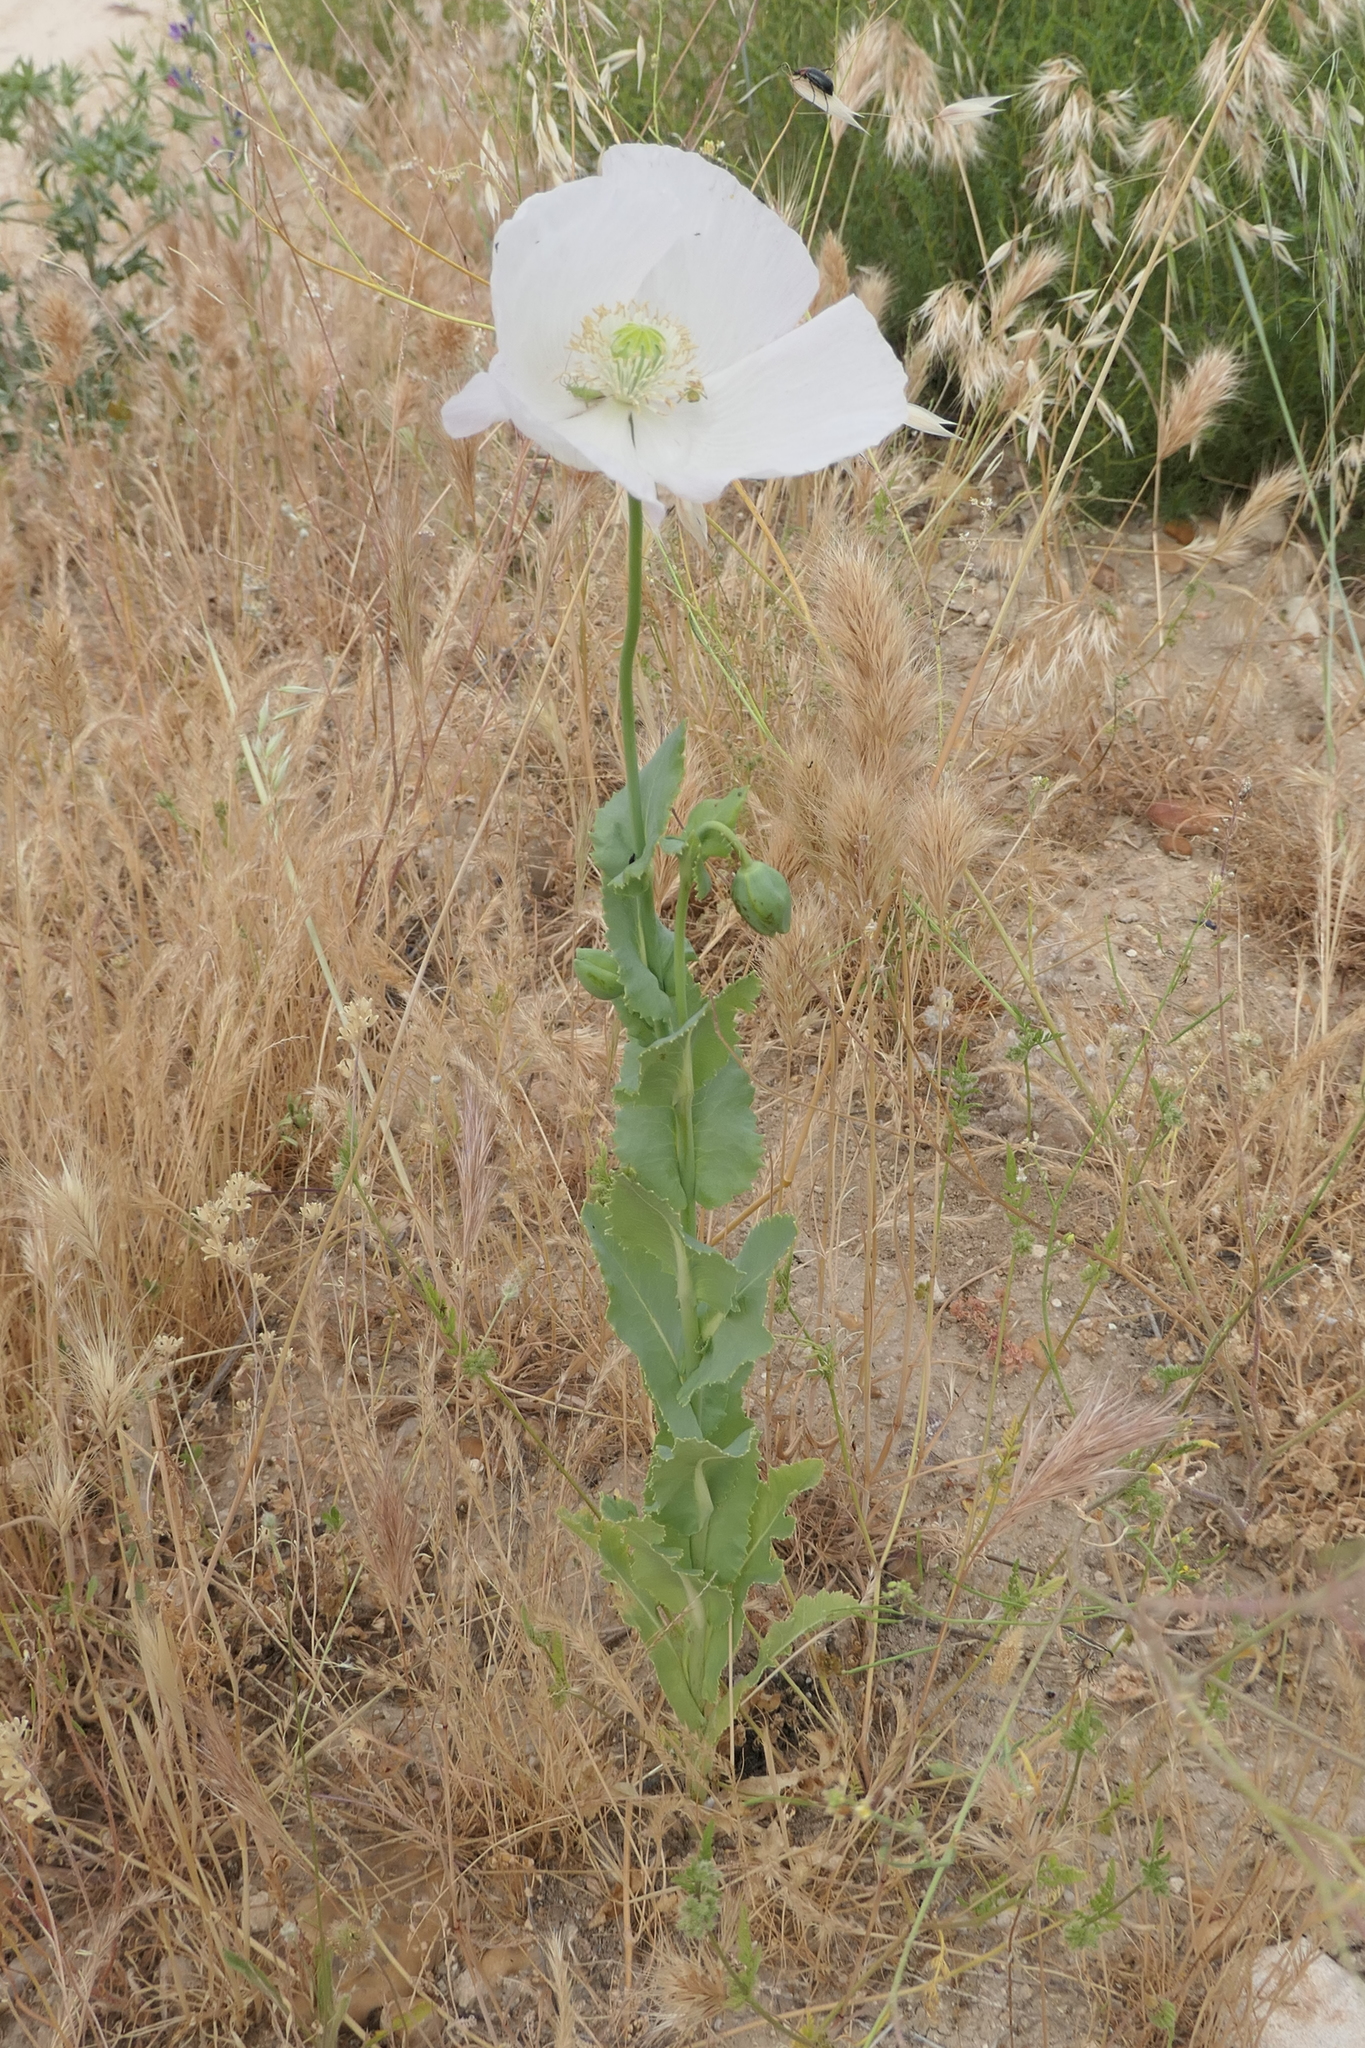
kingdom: Plantae
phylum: Tracheophyta
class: Magnoliopsida
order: Ranunculales
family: Papaveraceae
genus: Papaver
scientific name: Papaver somniferum
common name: Opium poppy
